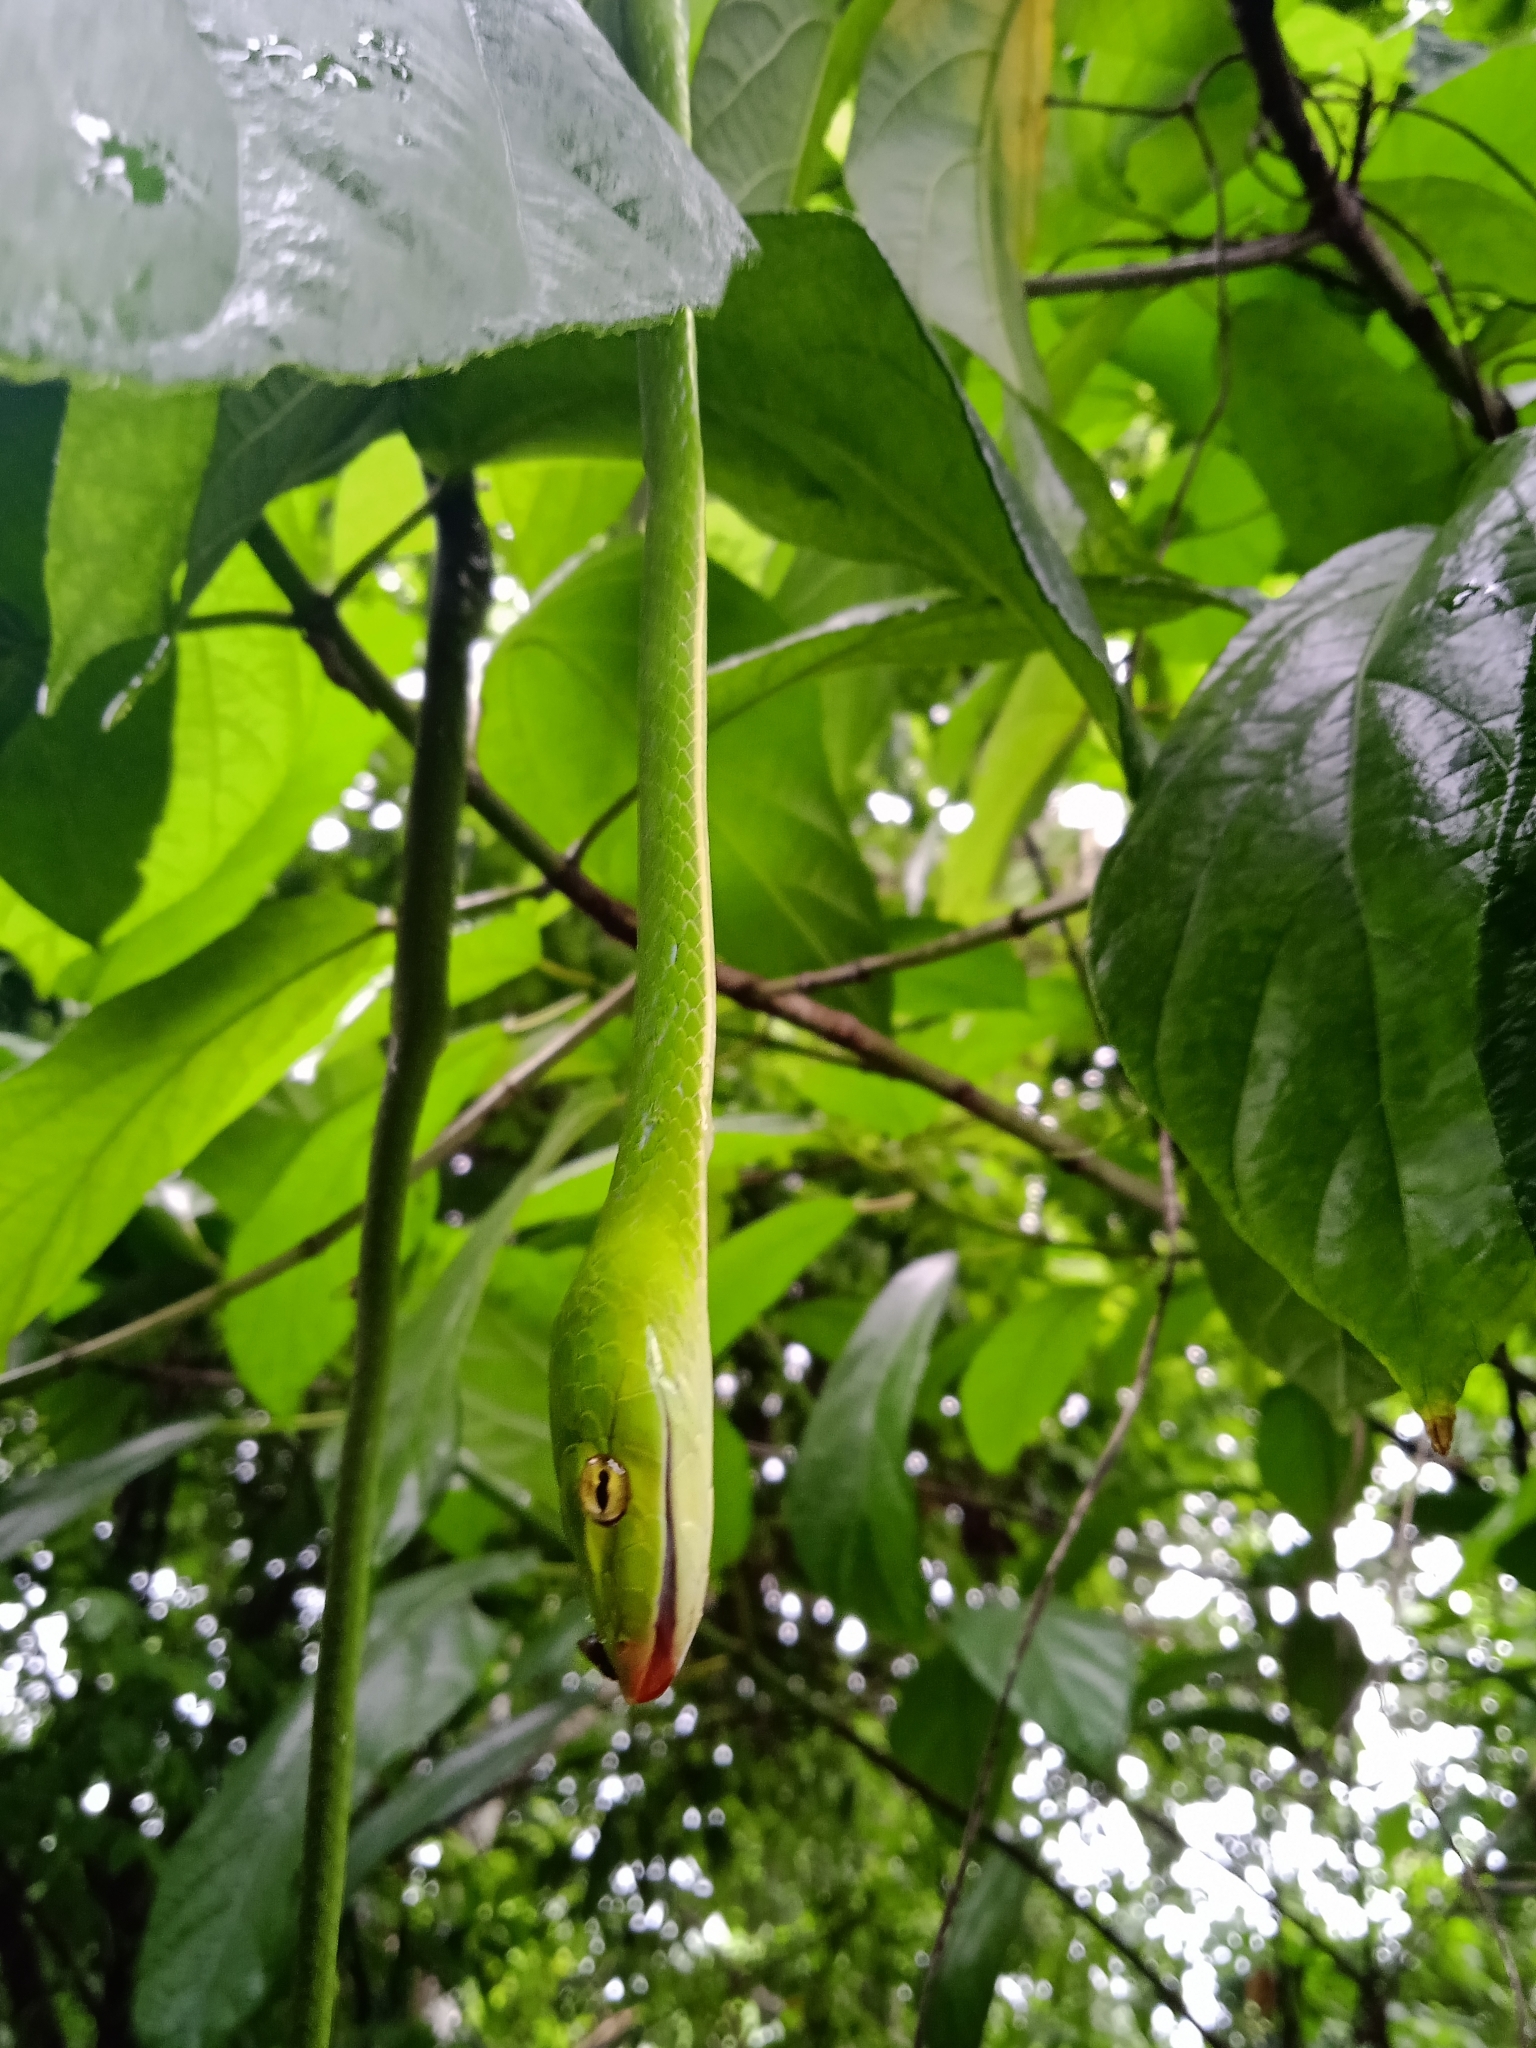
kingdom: Animalia
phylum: Chordata
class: Squamata
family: Colubridae
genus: Ahaetulla
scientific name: Ahaetulla oxyrhyncha
